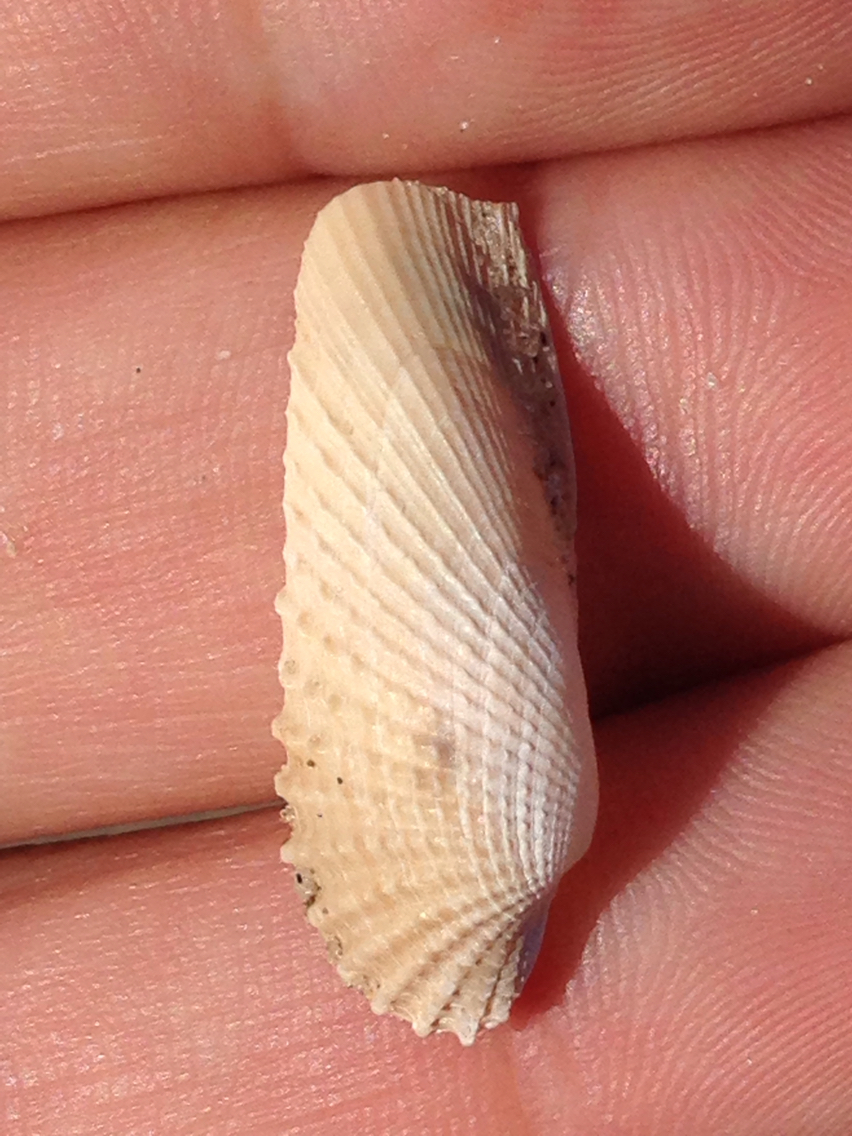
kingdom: Animalia
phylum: Mollusca
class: Bivalvia
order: Myida
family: Pholadidae
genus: Cyrtopleura
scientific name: Cyrtopleura costata
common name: Angel wing
